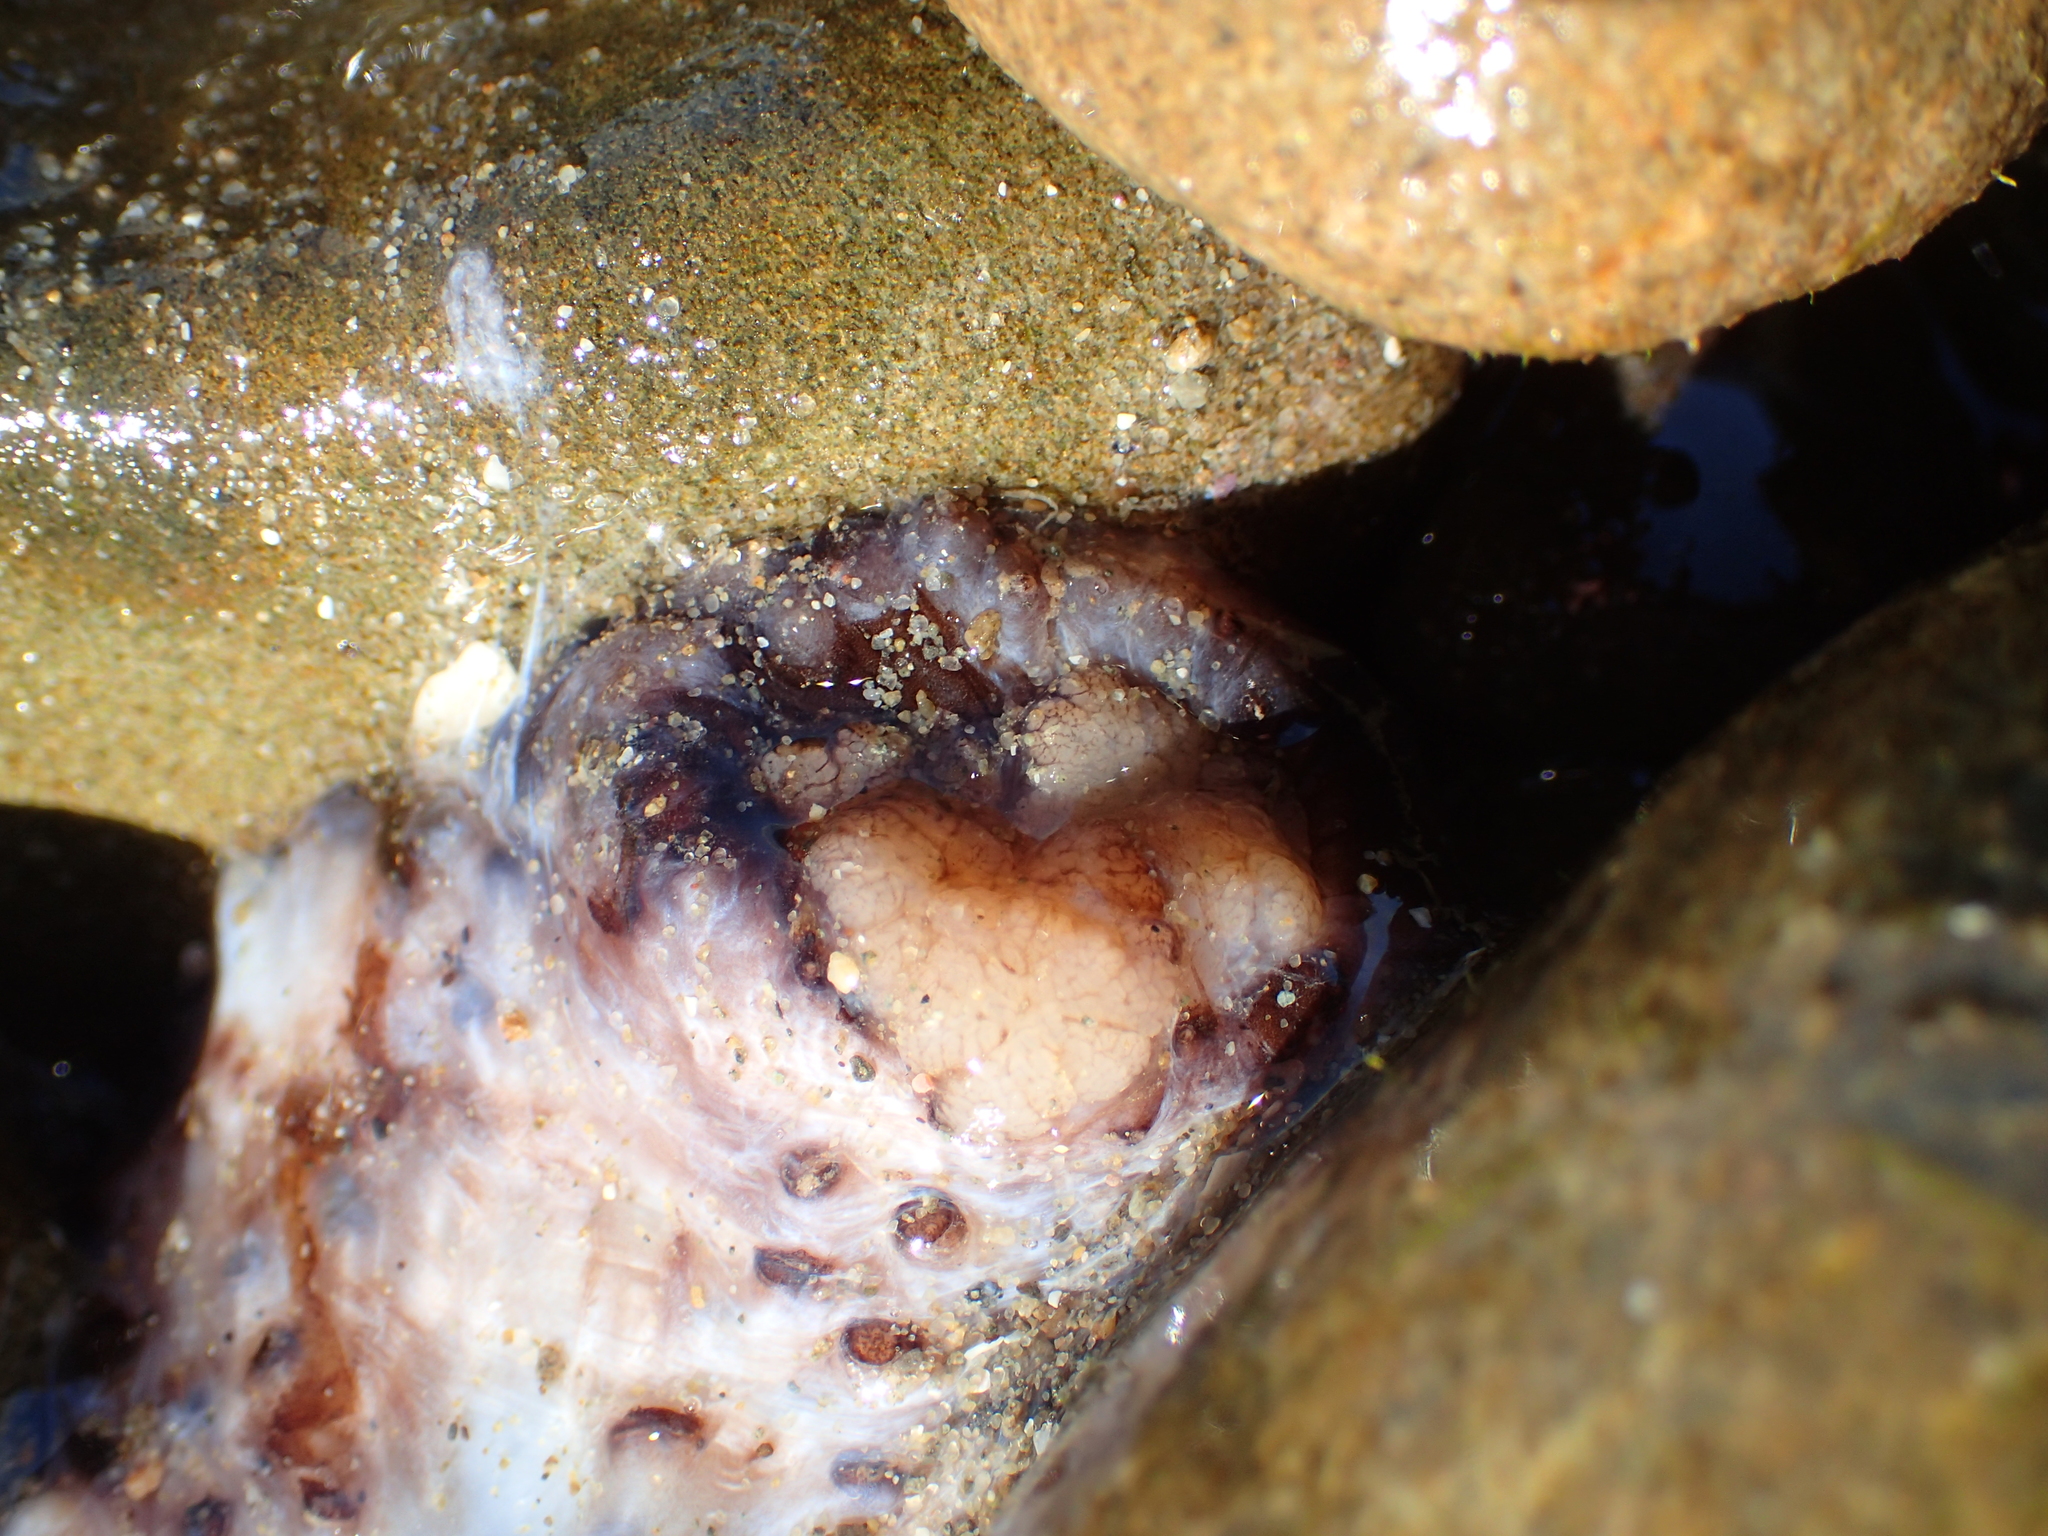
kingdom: Animalia
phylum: Echinodermata
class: Holothuroidea
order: Synallactida
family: Stichopodidae
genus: Australostichopus
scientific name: Australostichopus mollis
